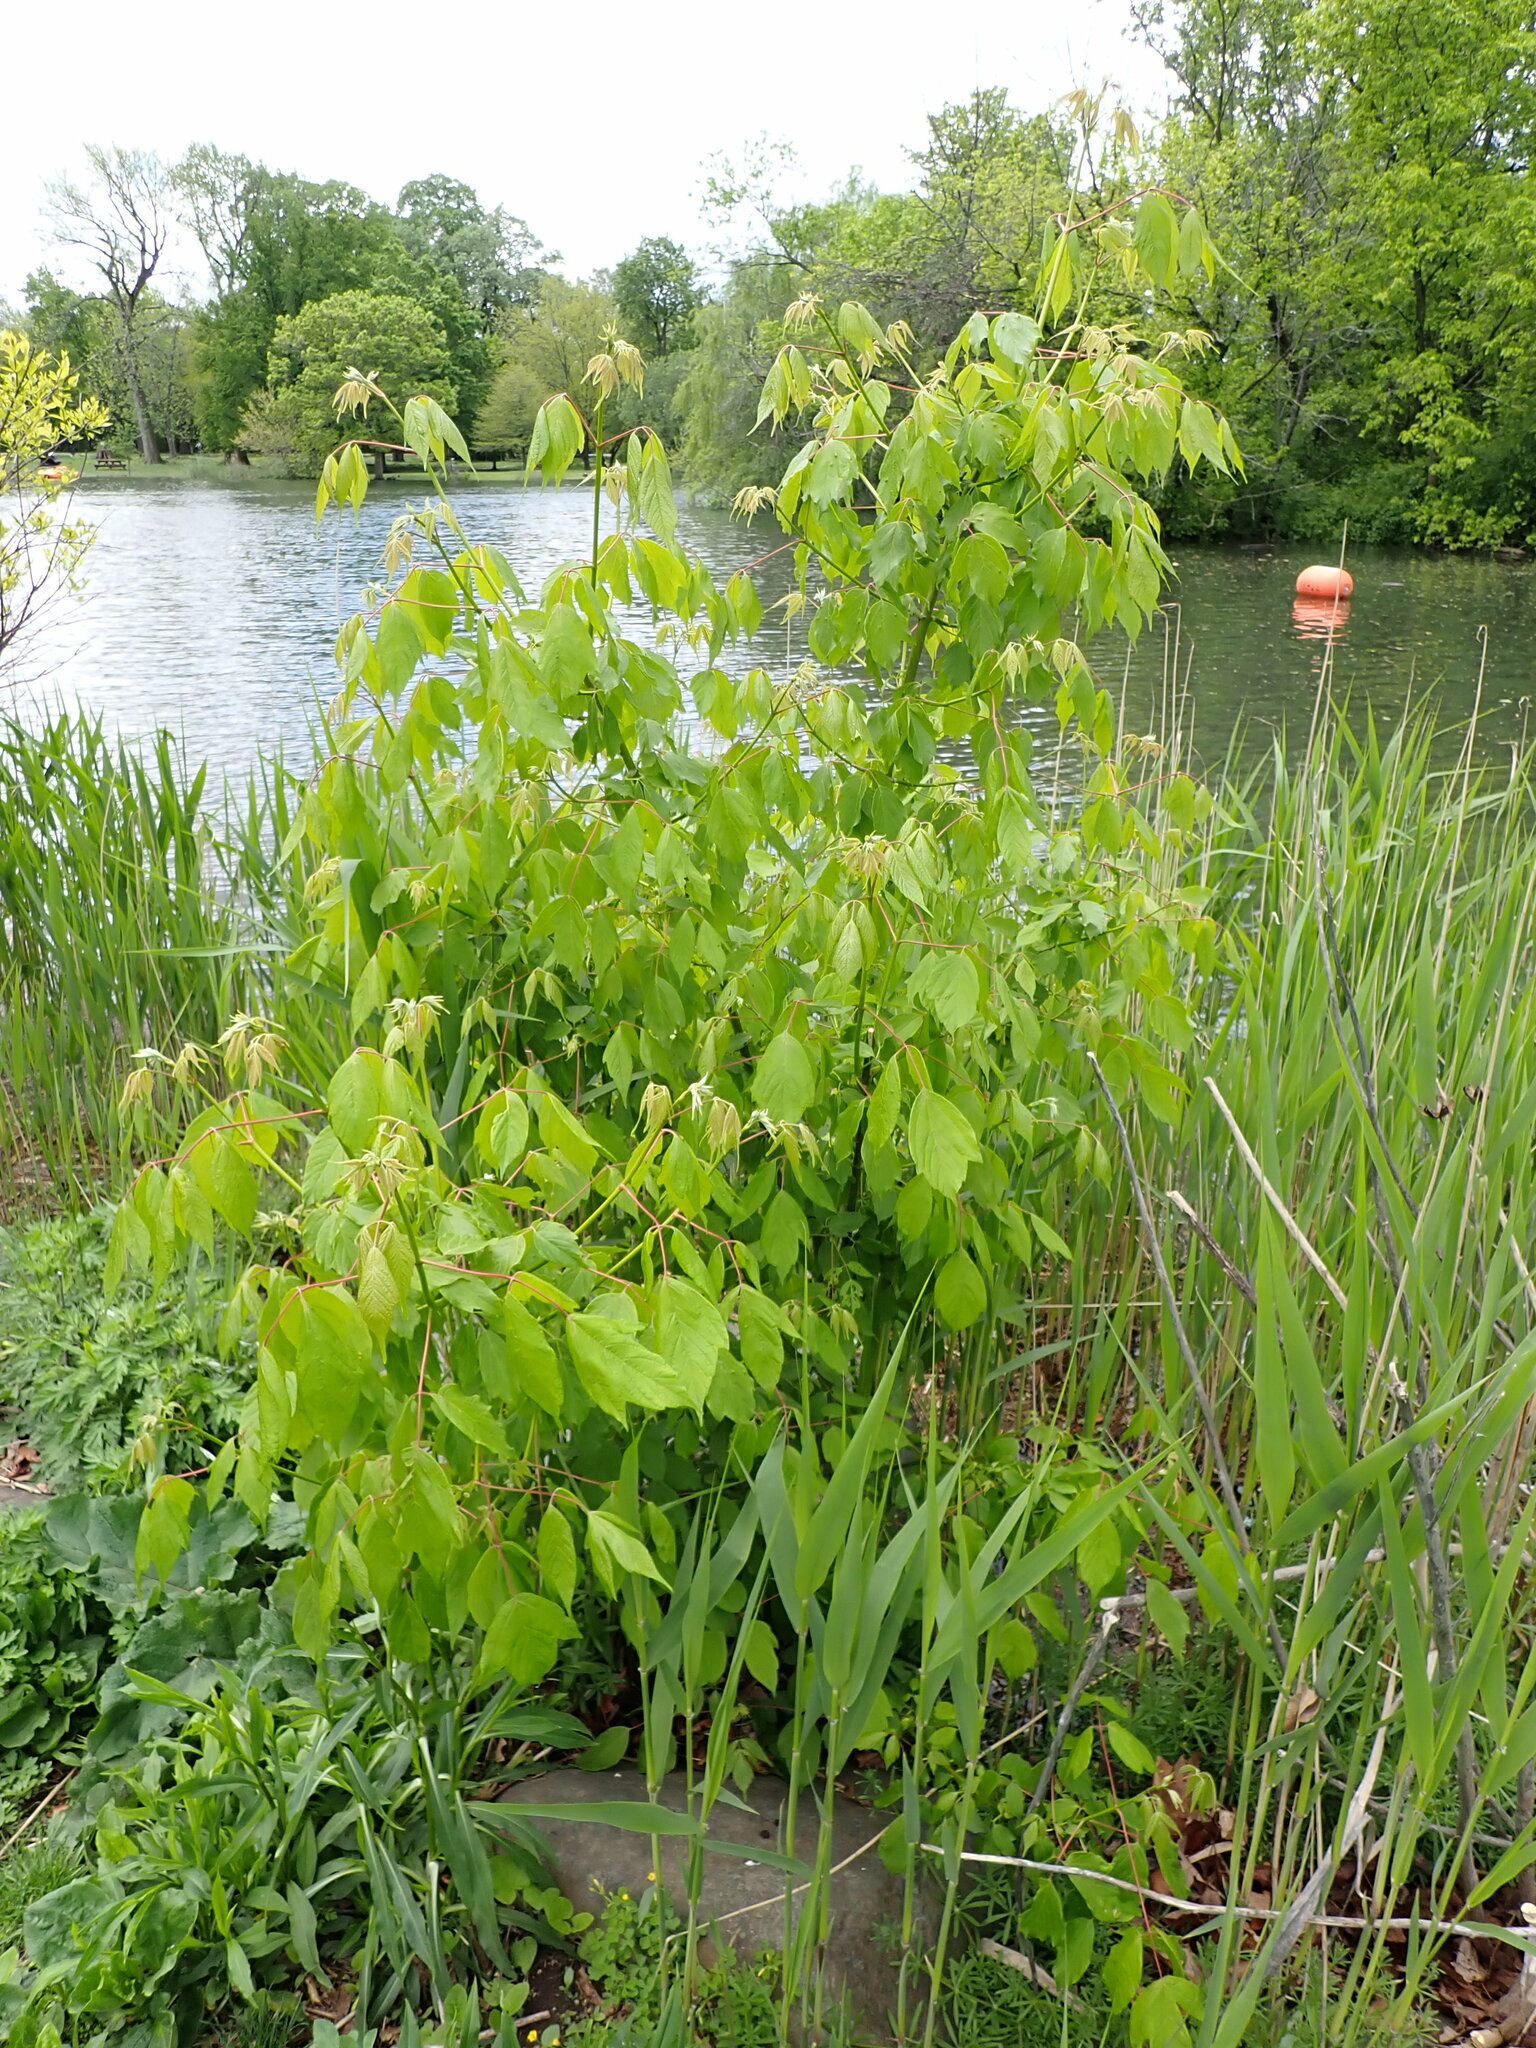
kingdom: Plantae
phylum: Tracheophyta
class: Magnoliopsida
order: Sapindales
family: Sapindaceae
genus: Acer
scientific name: Acer negundo
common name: Ashleaf maple
